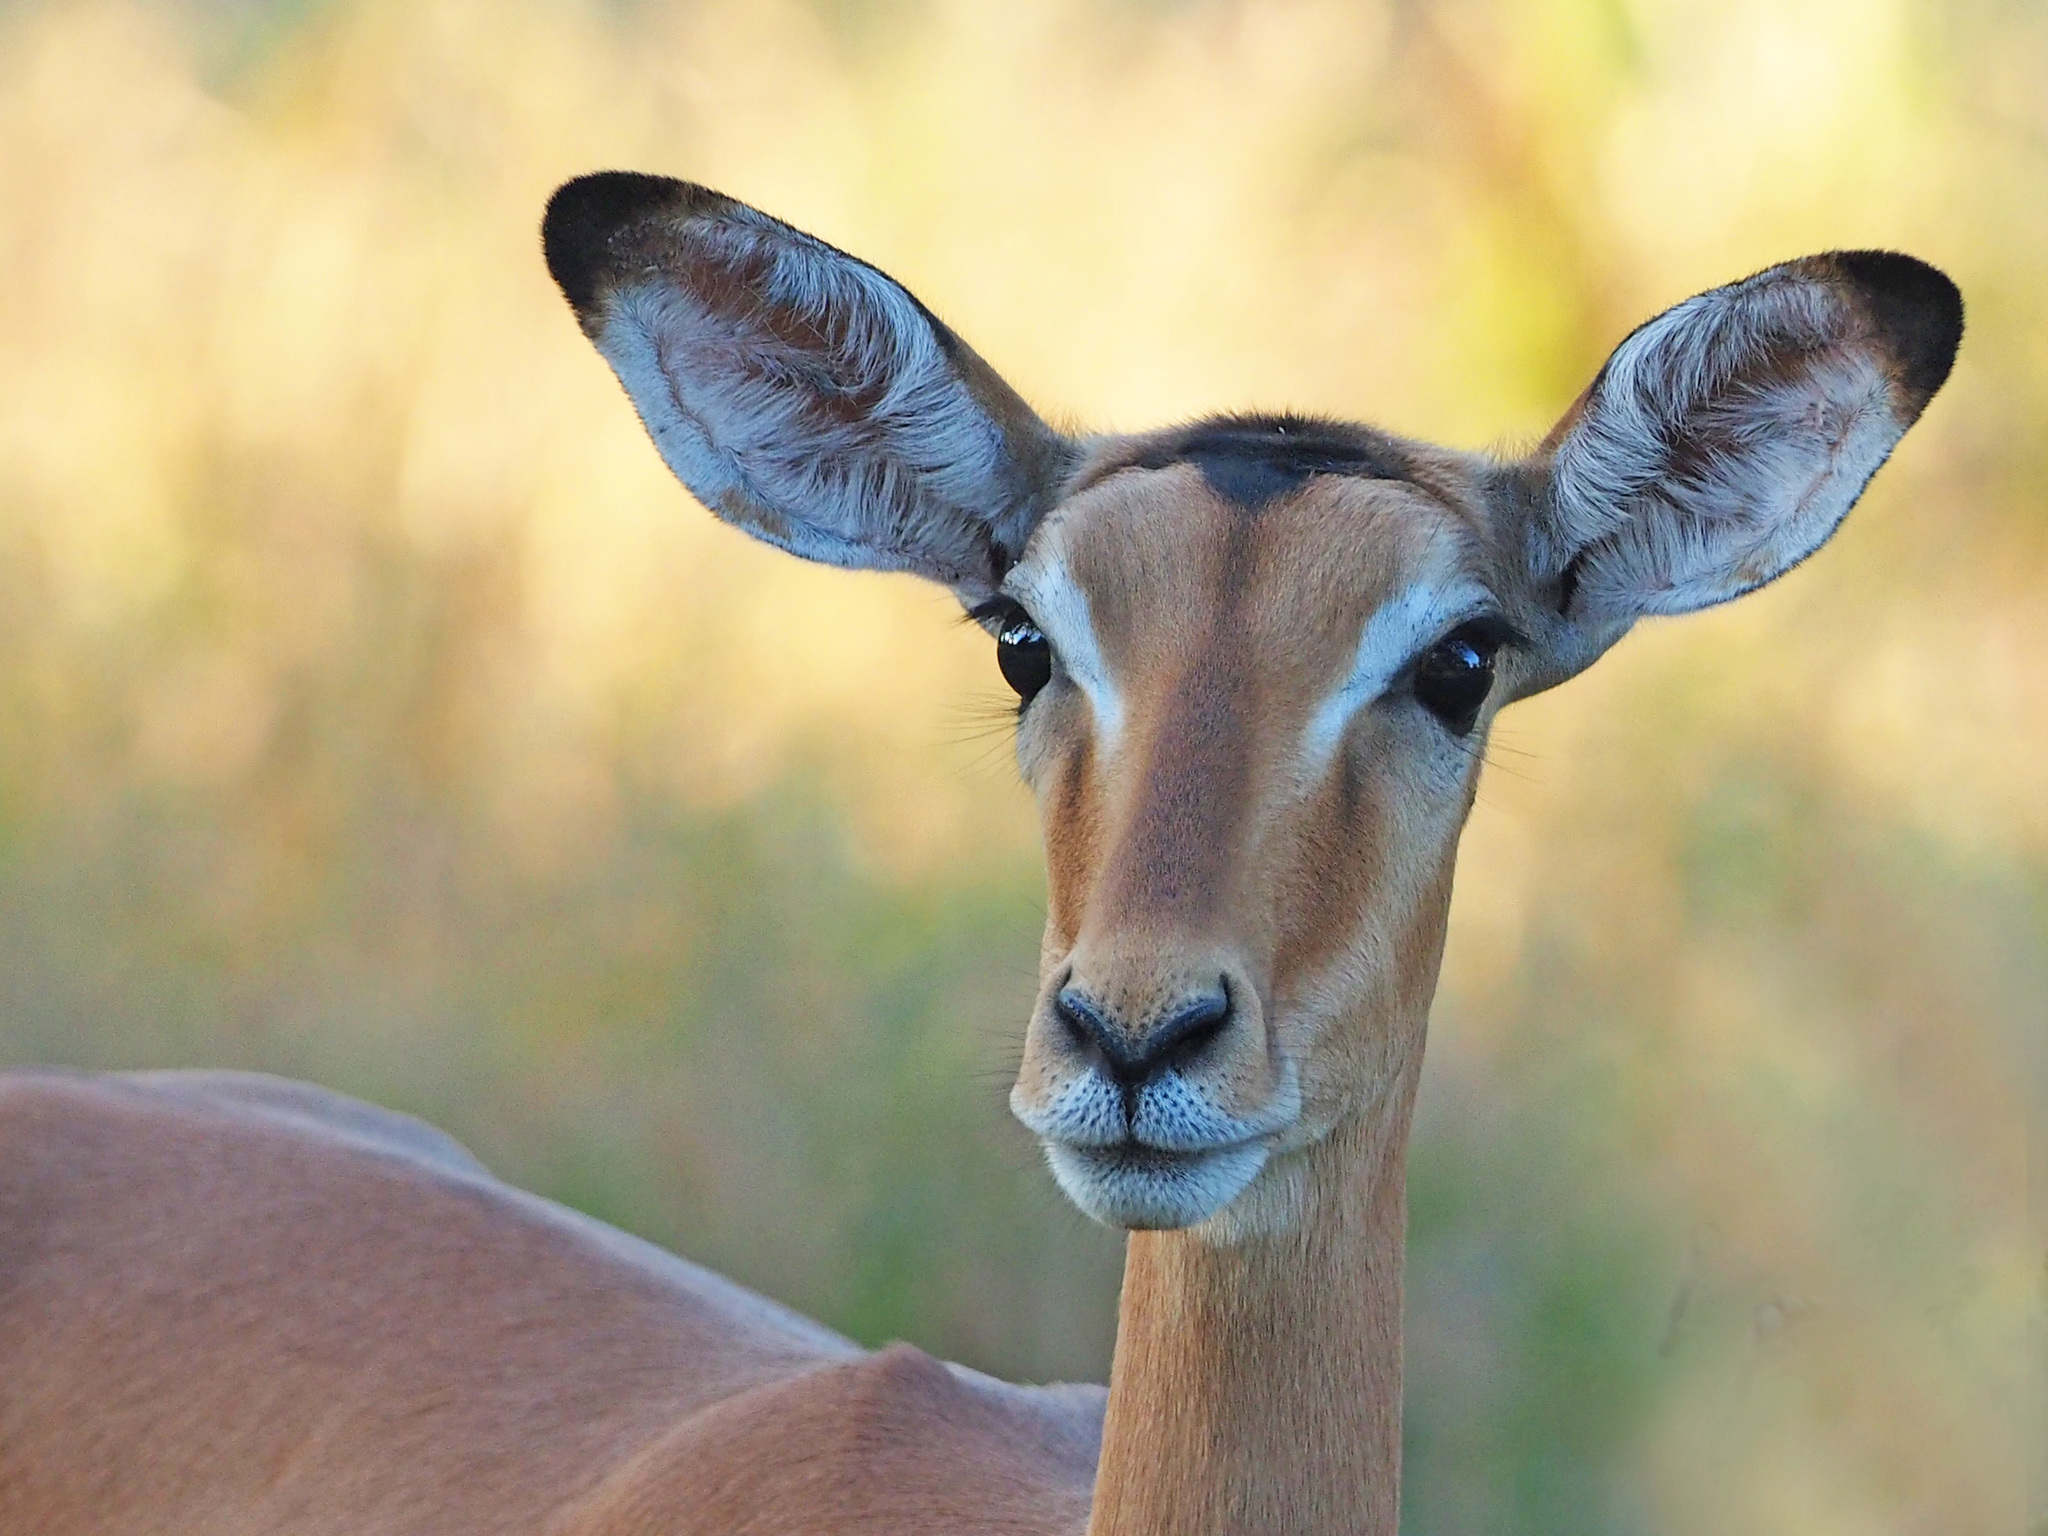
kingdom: Animalia
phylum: Chordata
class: Mammalia
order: Artiodactyla
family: Bovidae
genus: Aepyceros
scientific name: Aepyceros melampus
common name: Impala
